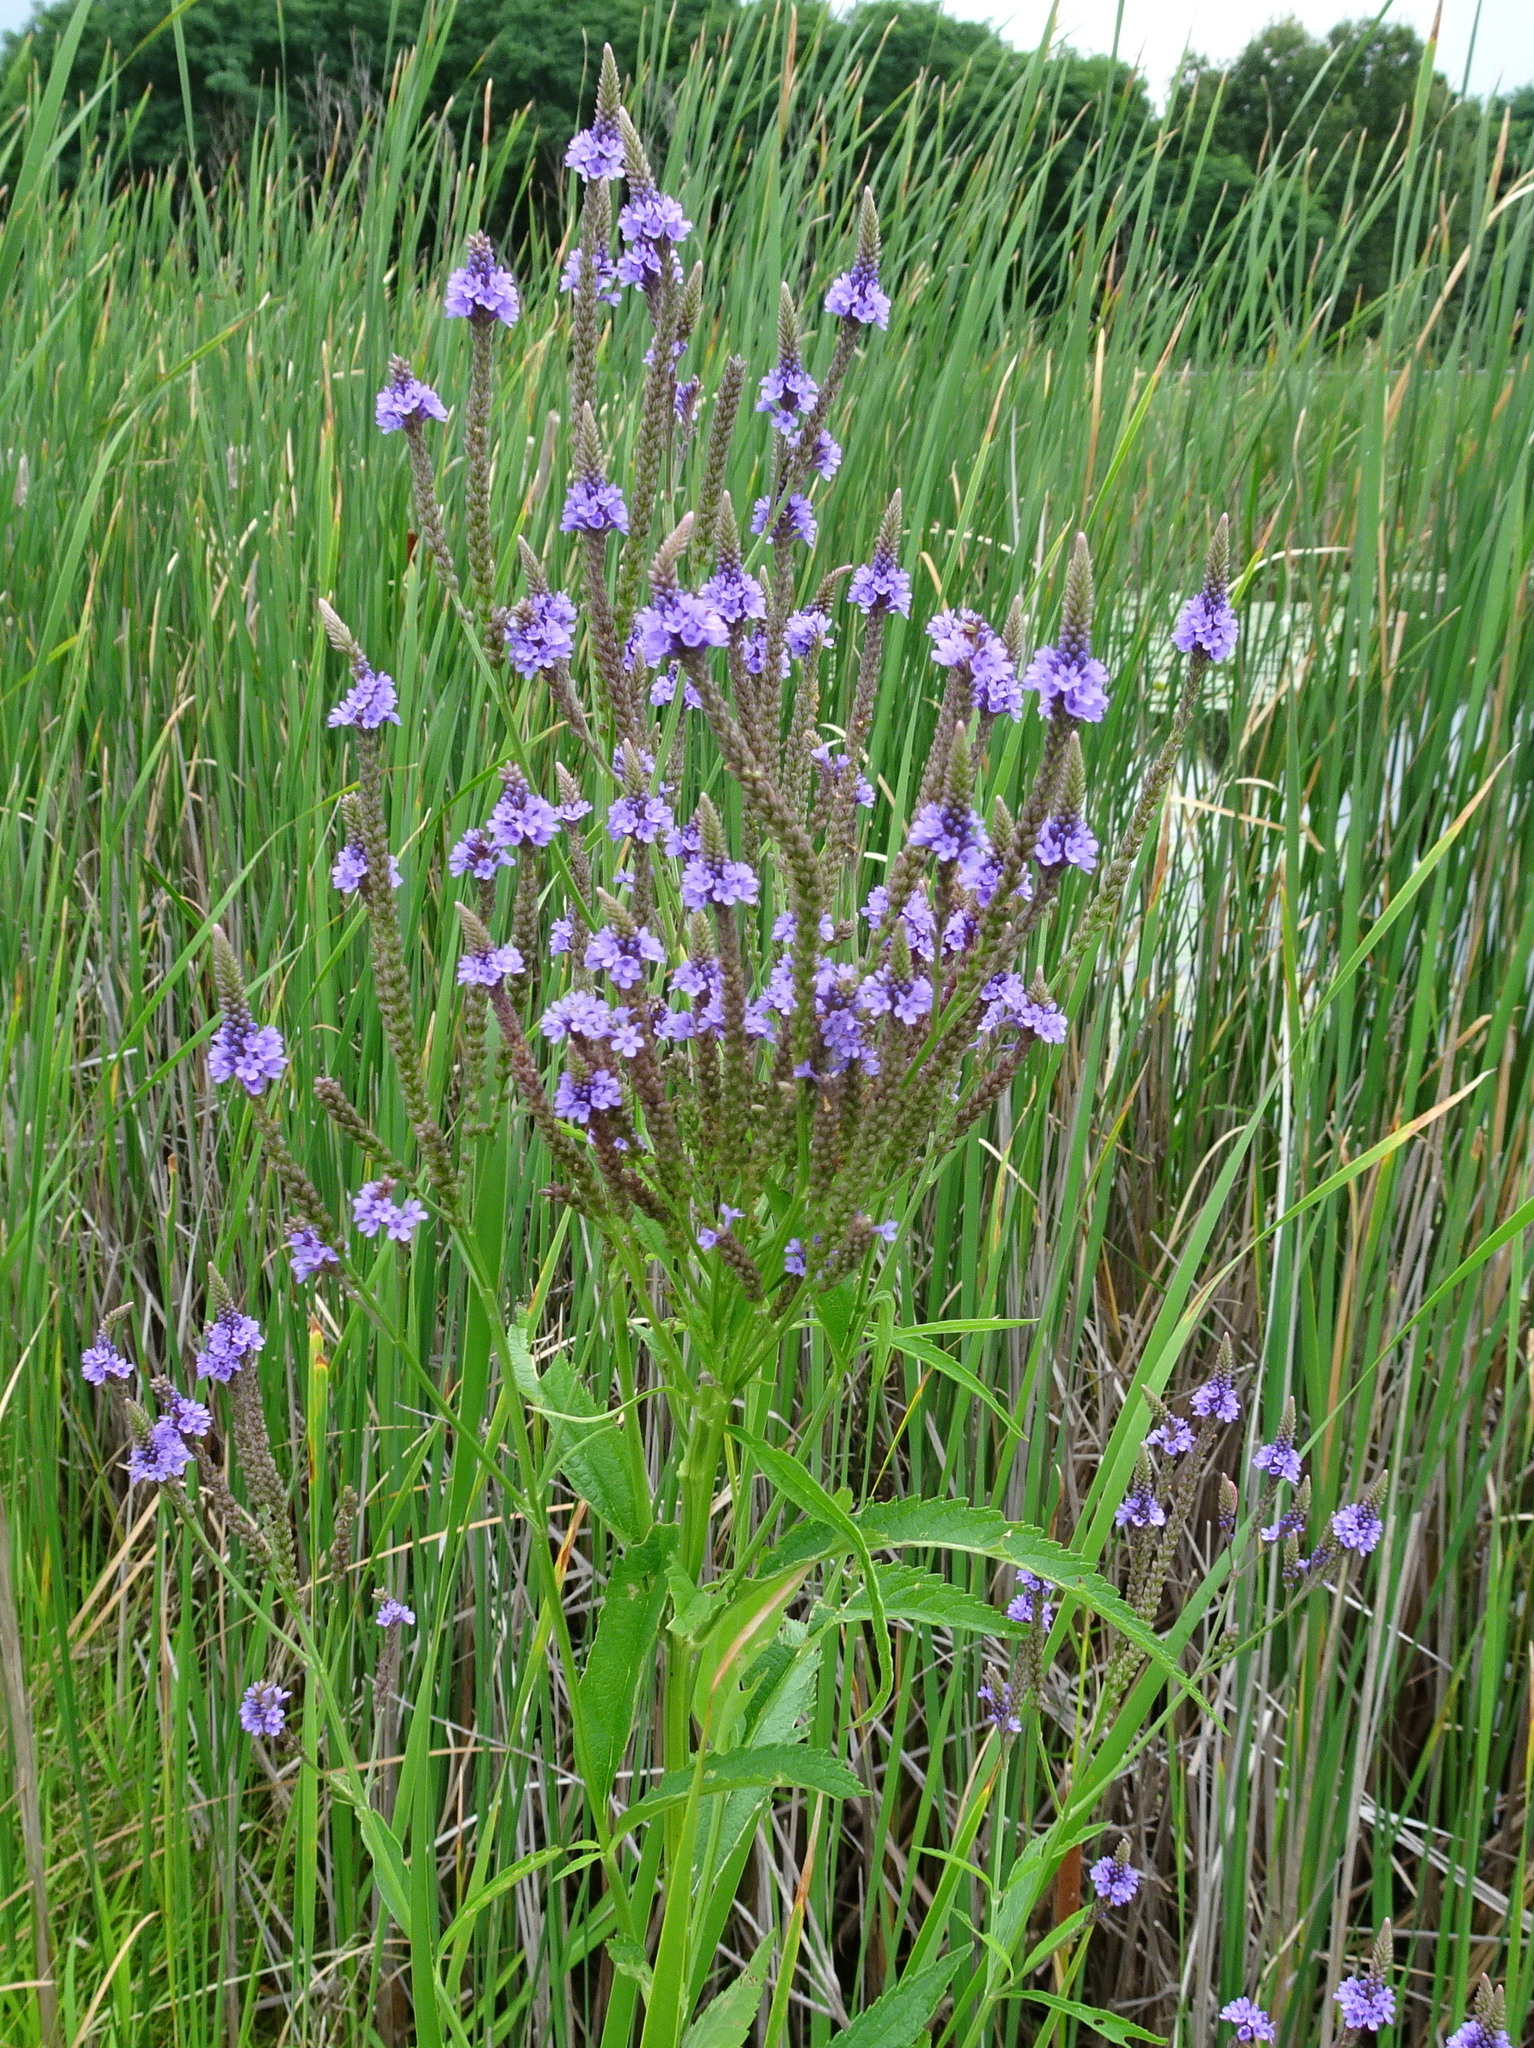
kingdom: Plantae
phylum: Tracheophyta
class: Magnoliopsida
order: Lamiales
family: Verbenaceae
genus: Verbena
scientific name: Verbena hastata
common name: American blue vervain
